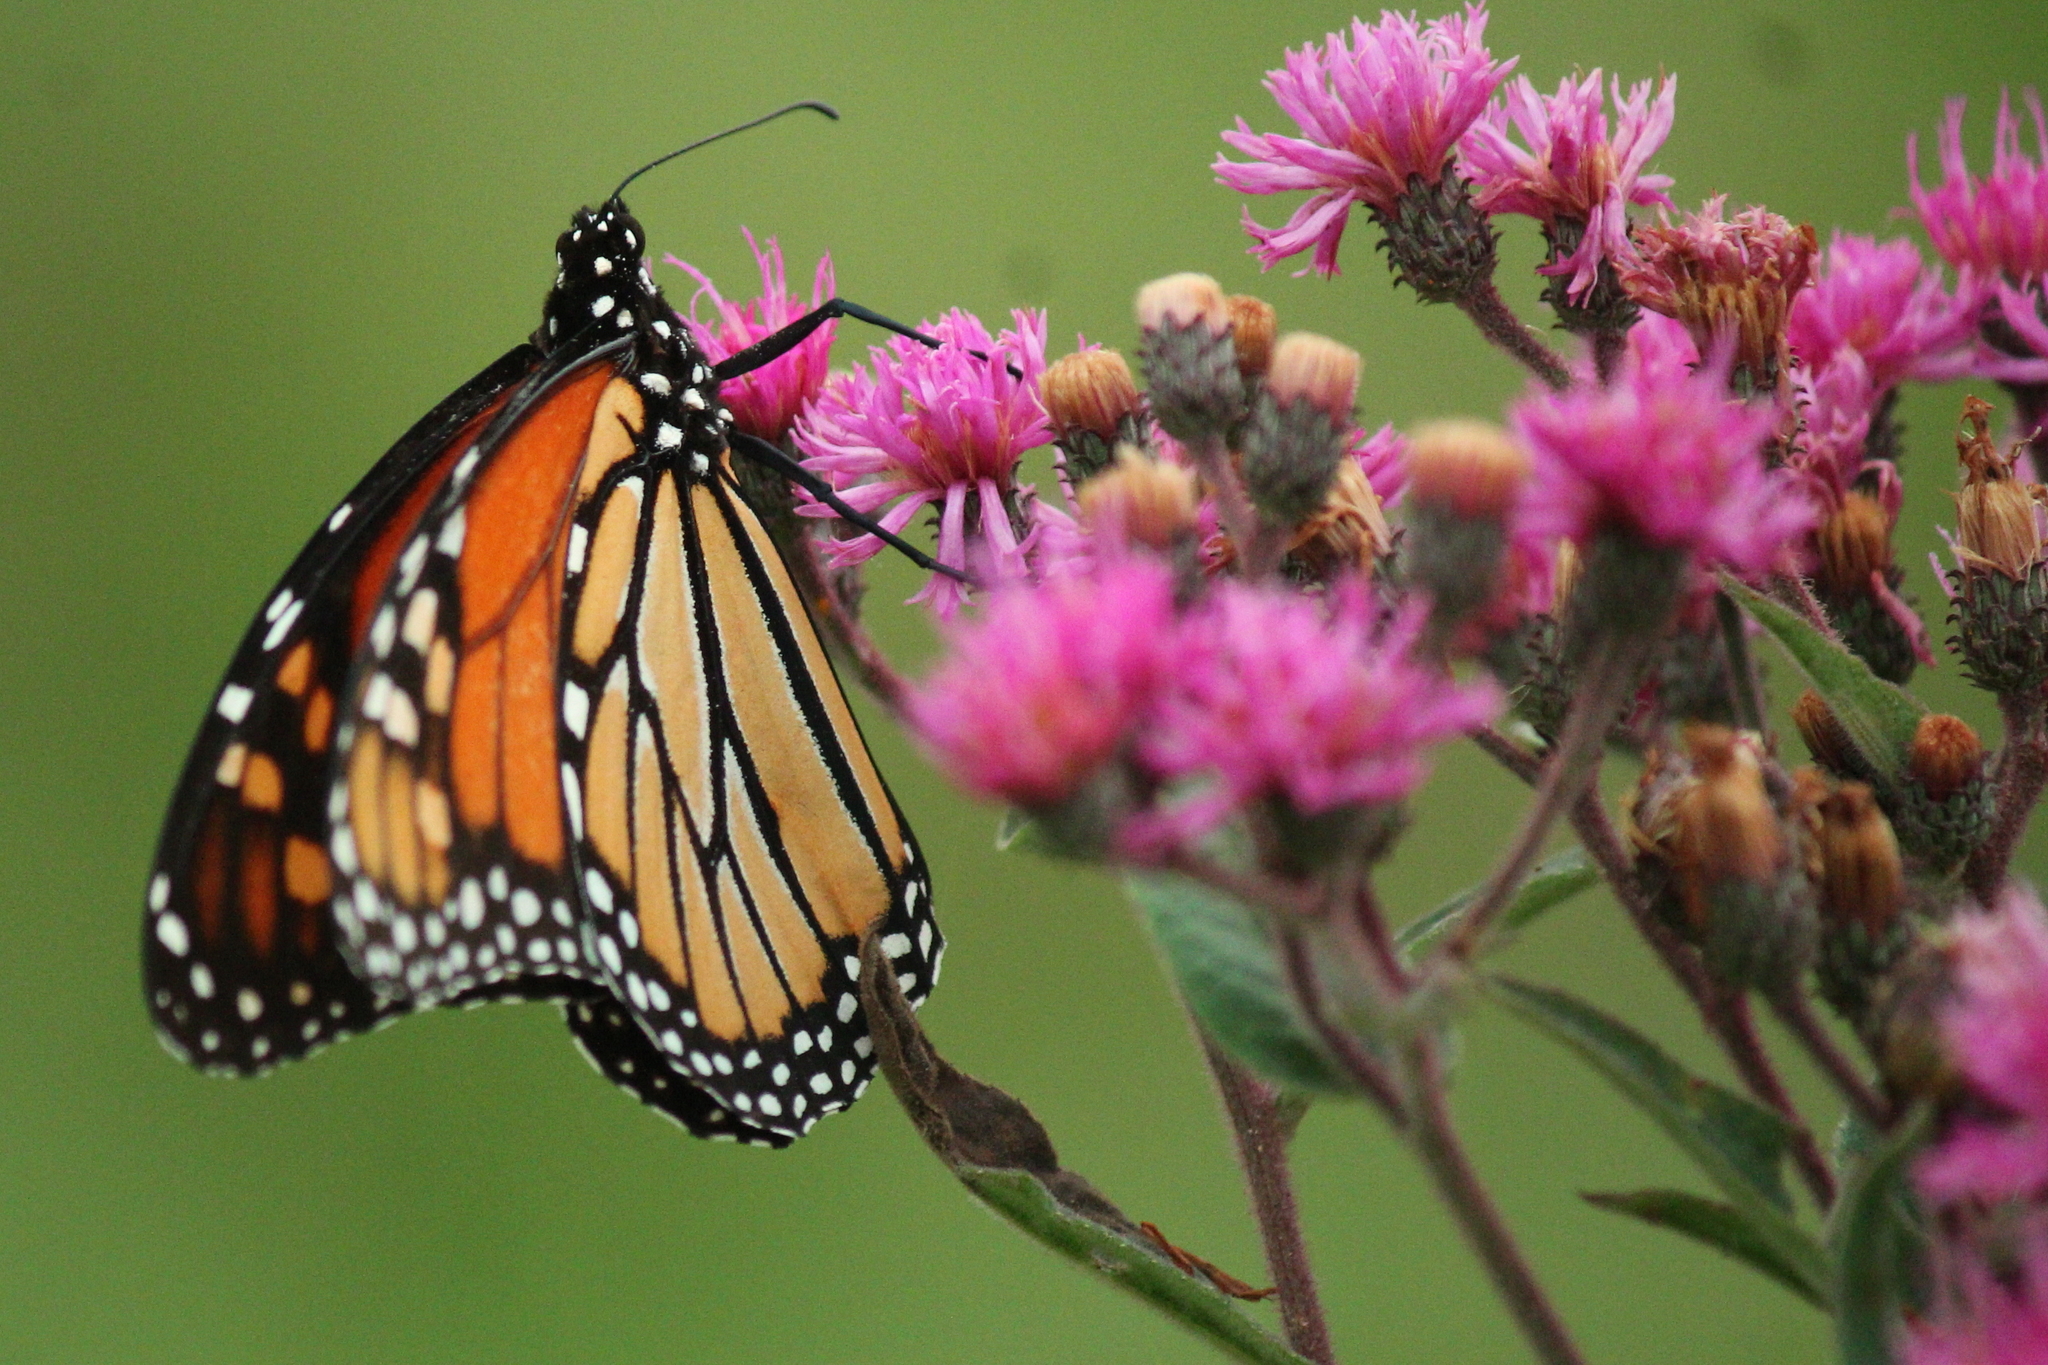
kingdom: Animalia
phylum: Arthropoda
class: Insecta
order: Lepidoptera
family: Nymphalidae
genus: Danaus
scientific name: Danaus plexippus
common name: Monarch
